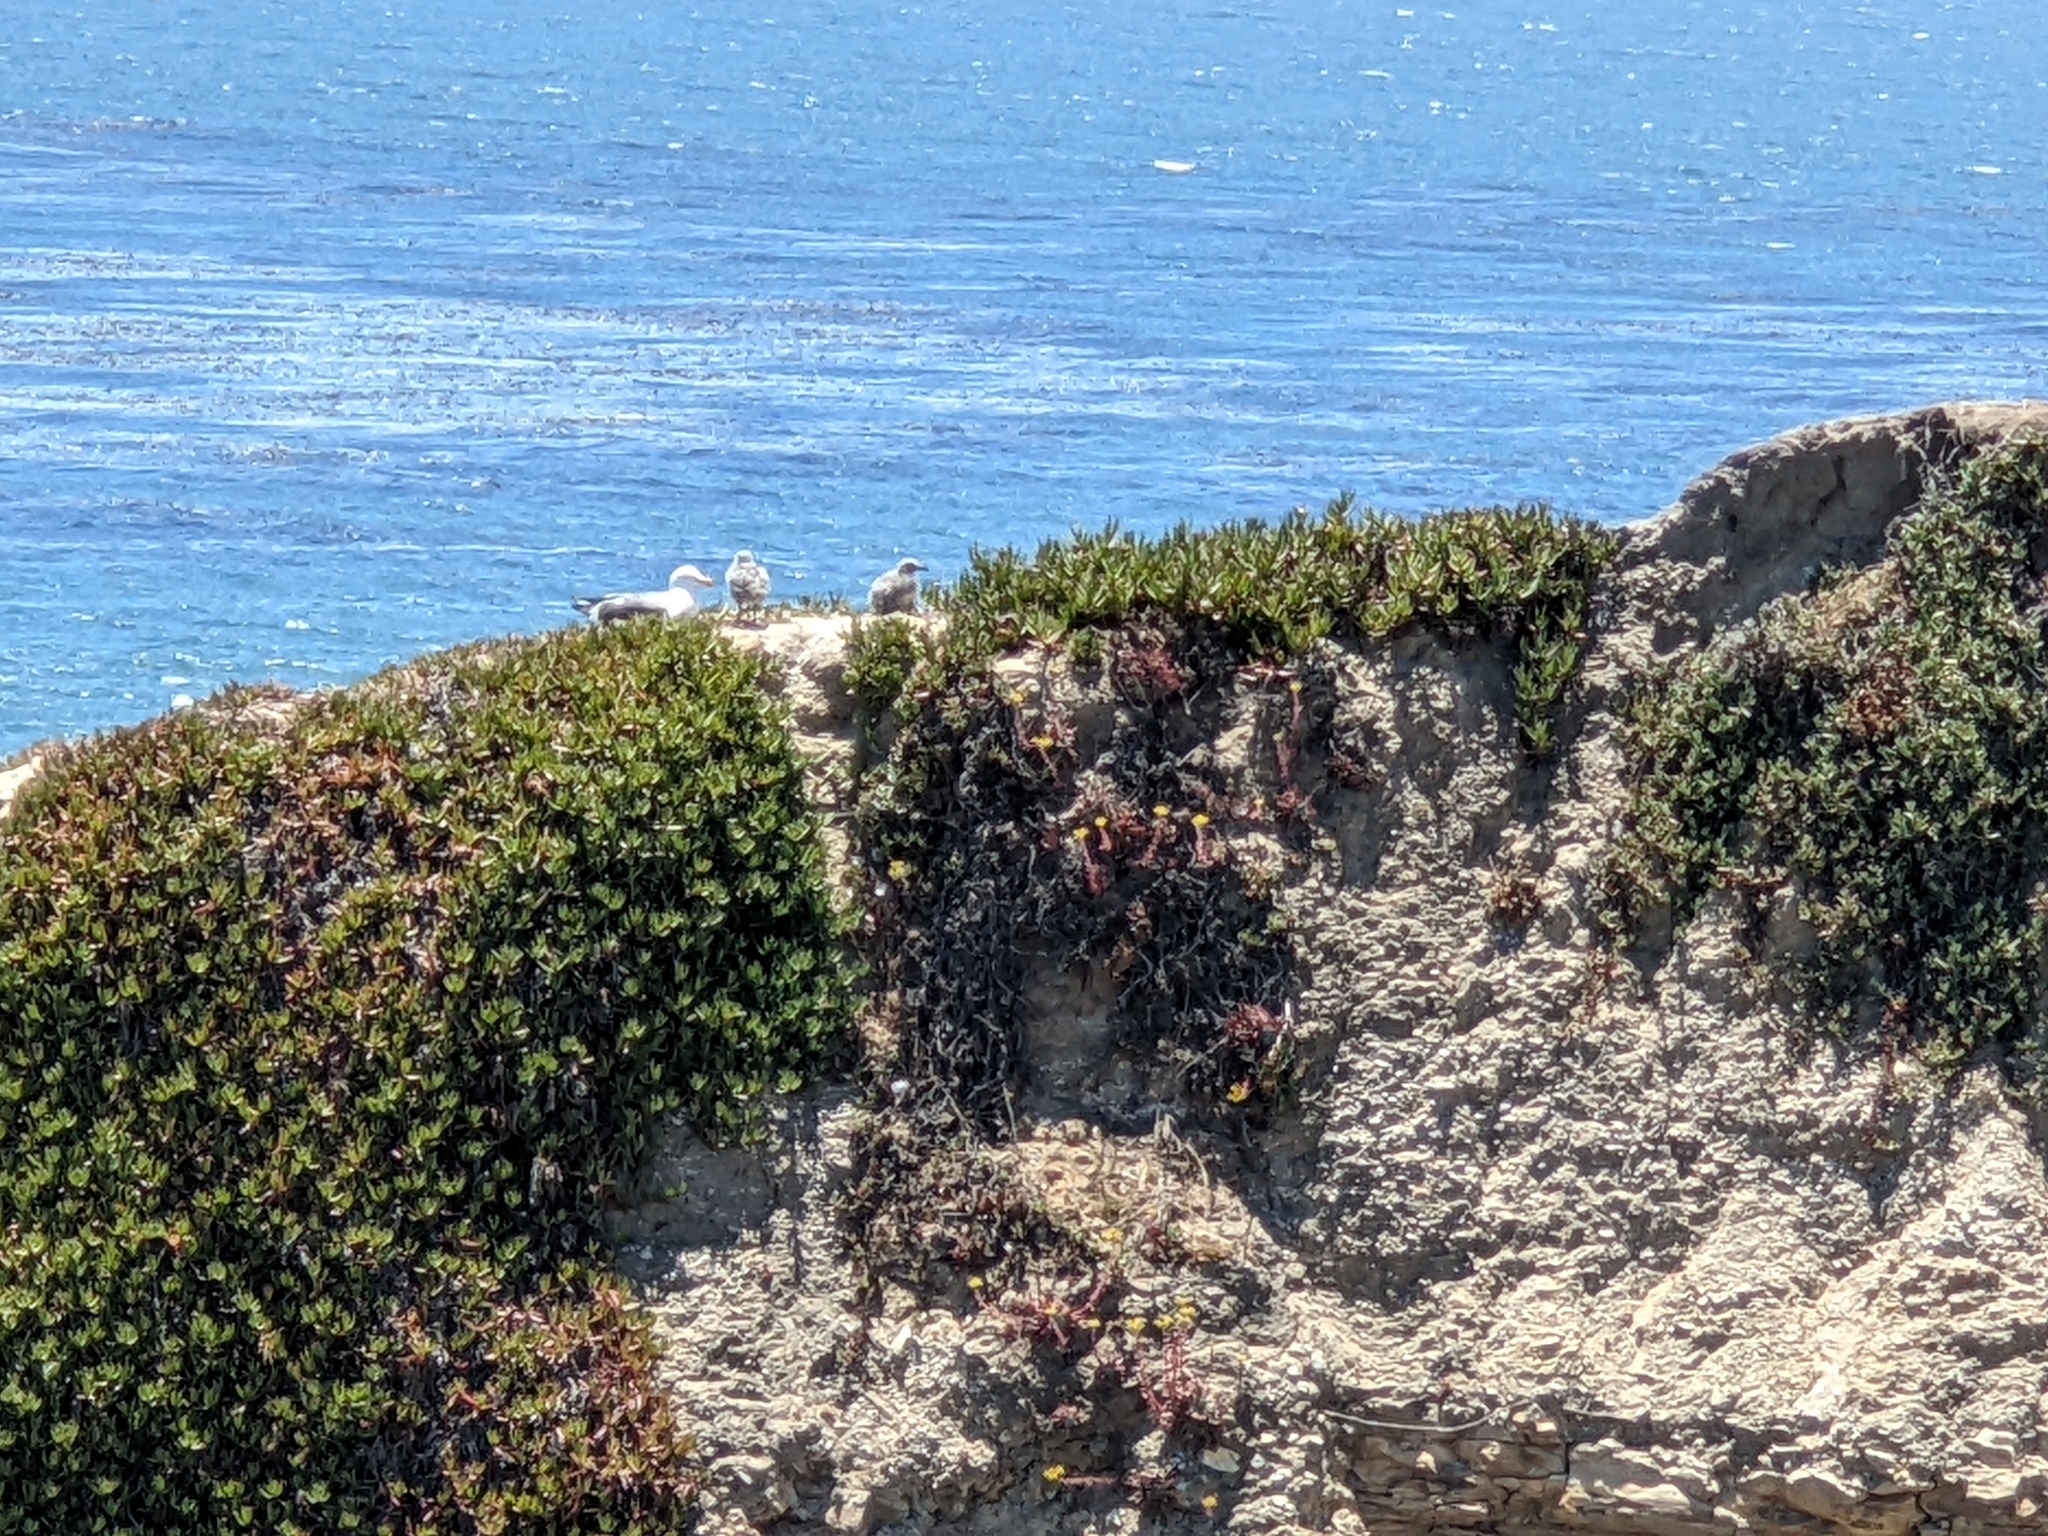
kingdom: Animalia
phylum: Chordata
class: Aves
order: Charadriiformes
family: Laridae
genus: Larus
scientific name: Larus occidentalis
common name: Western gull
